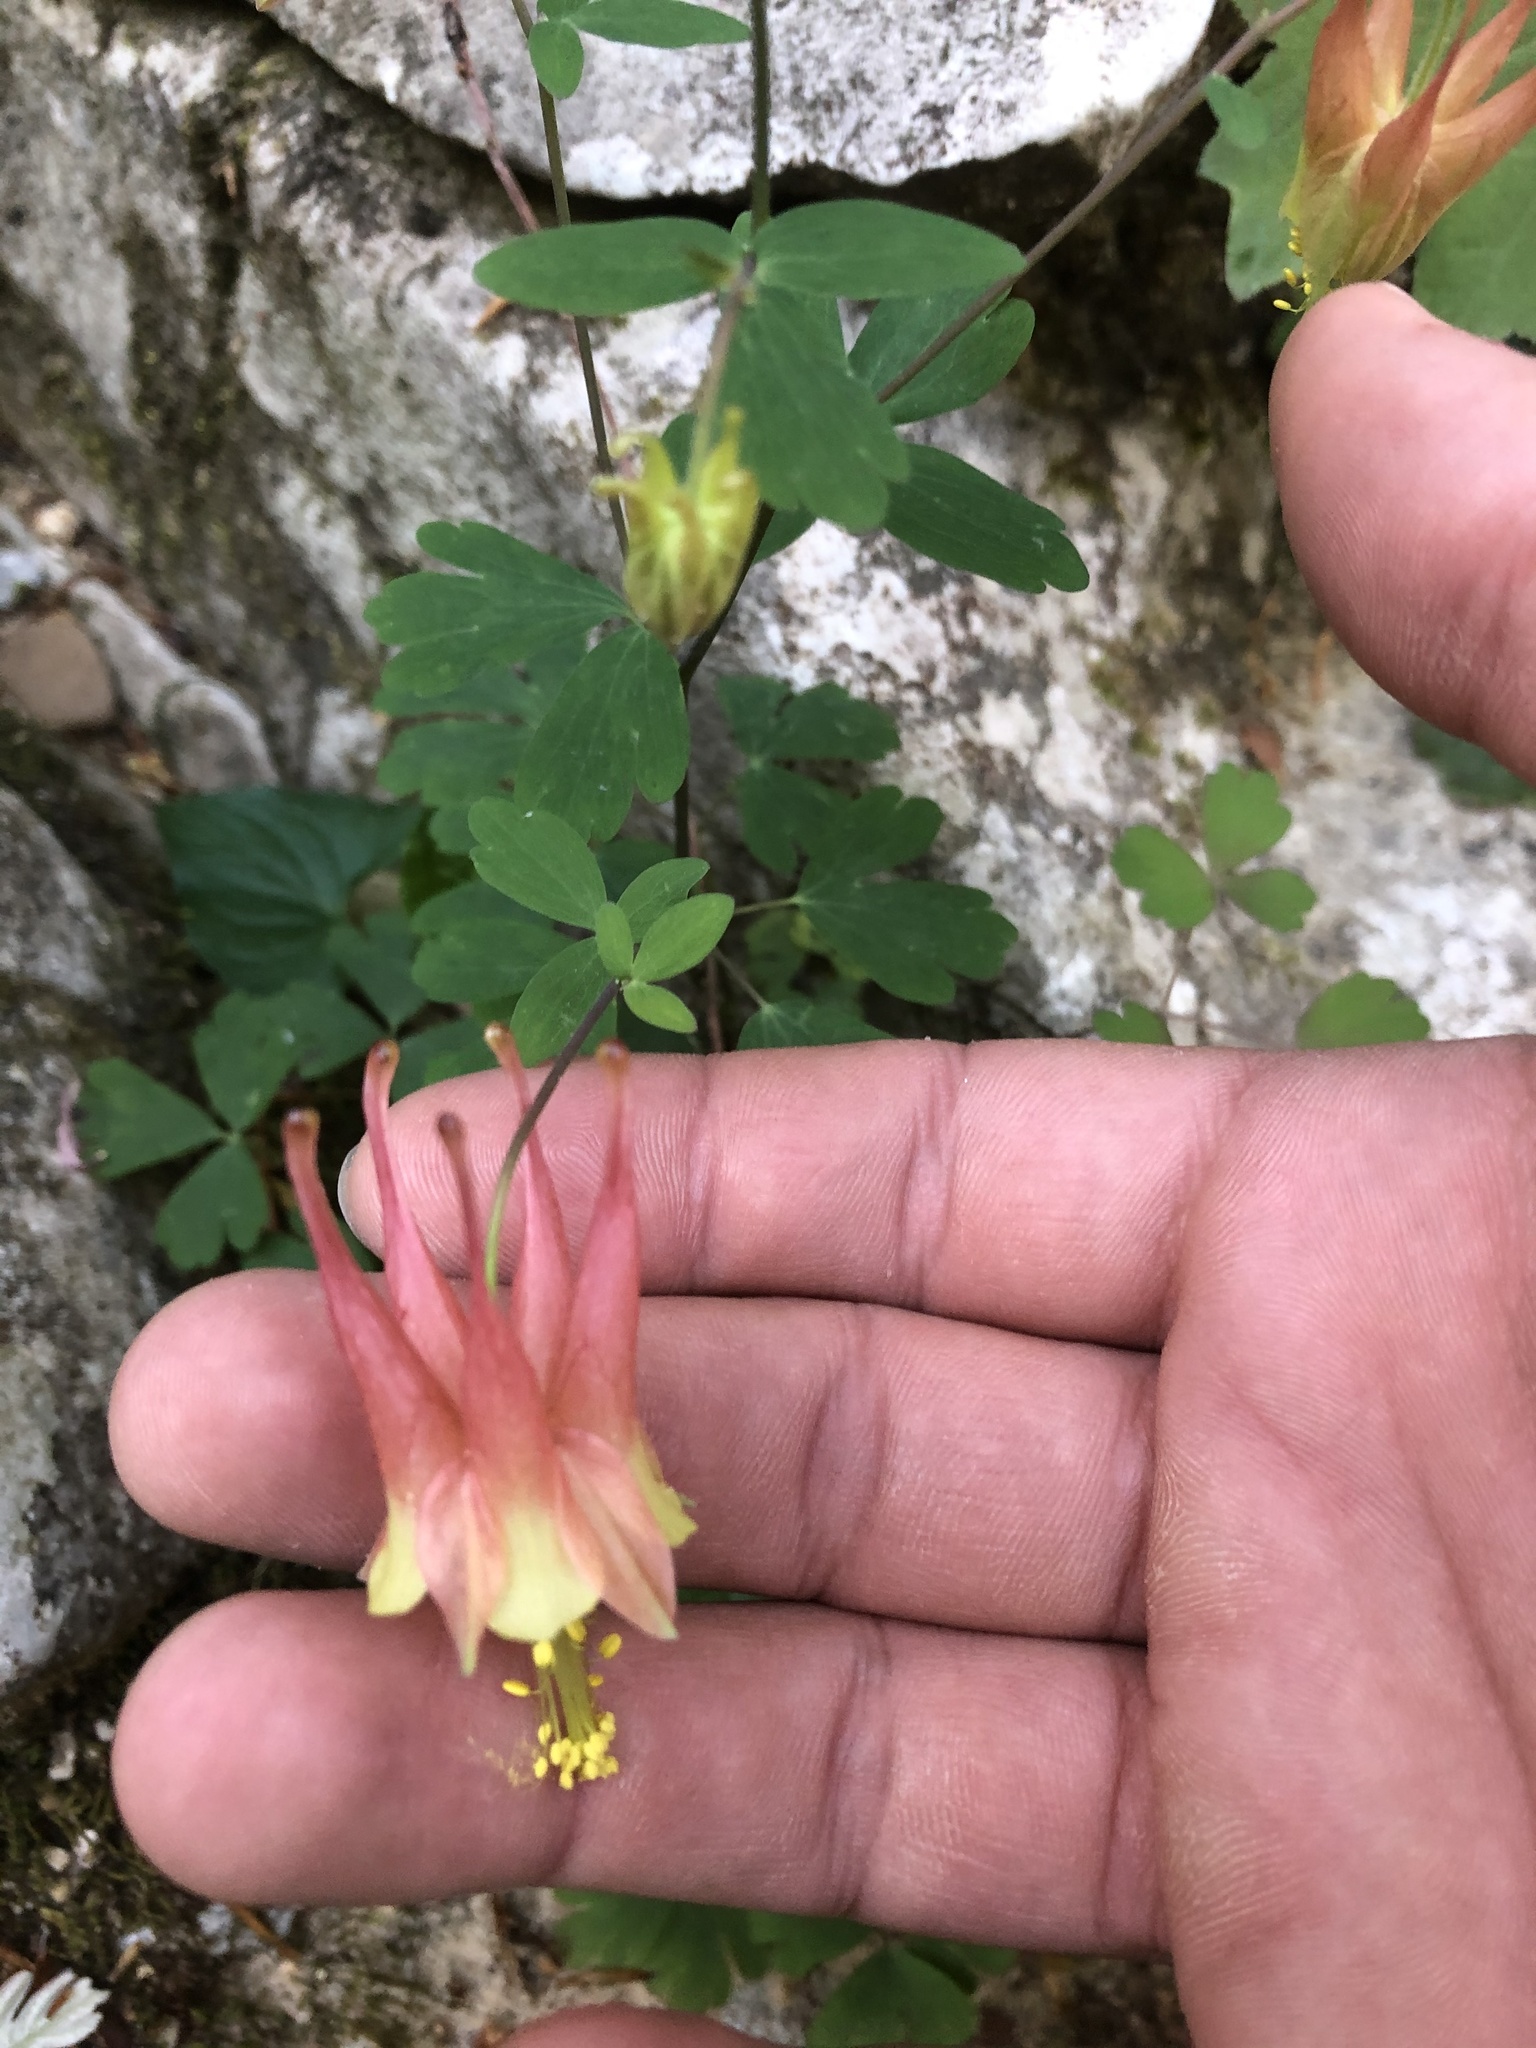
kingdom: Plantae
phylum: Tracheophyta
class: Magnoliopsida
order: Ranunculales
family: Ranunculaceae
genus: Aquilegia
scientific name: Aquilegia canadensis
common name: American columbine
